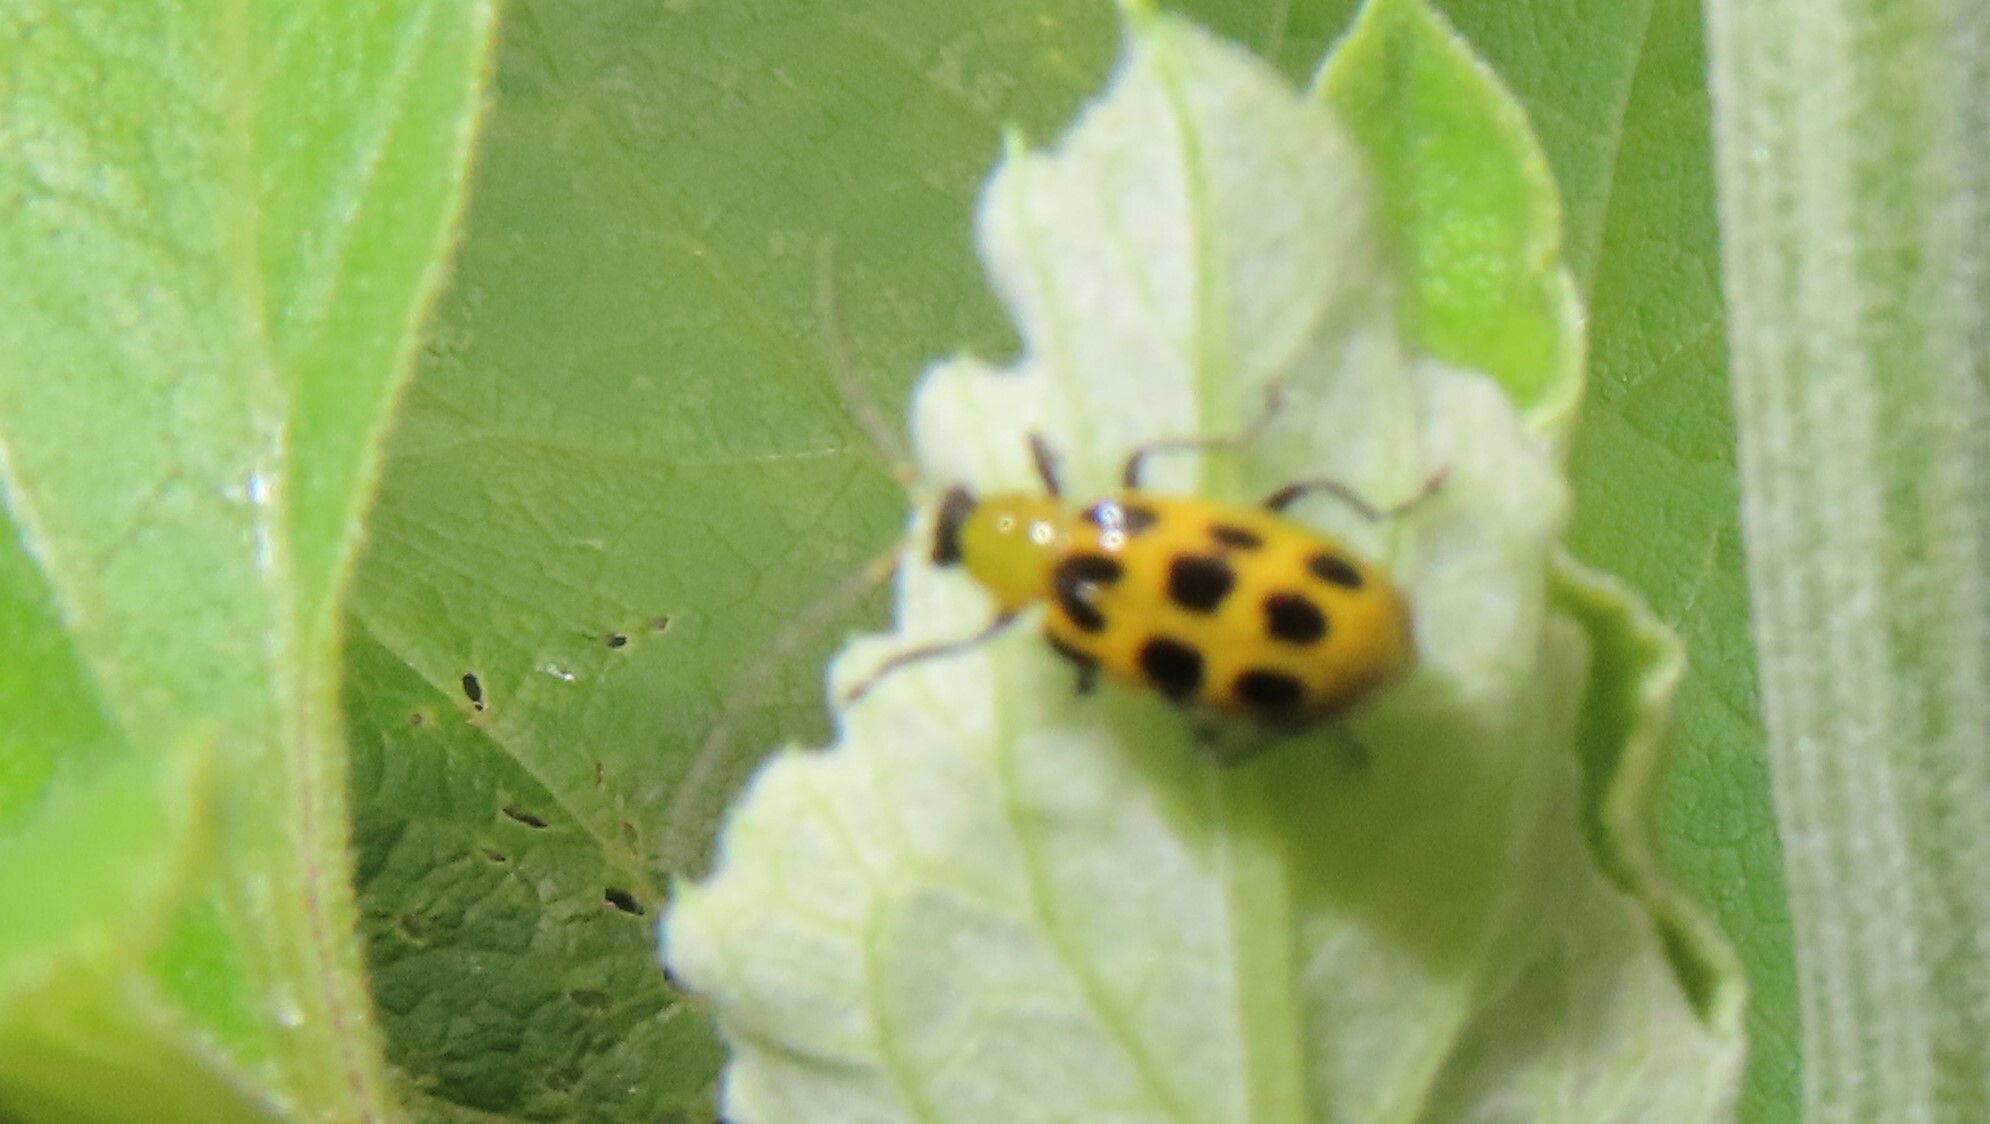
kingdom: Animalia
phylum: Arthropoda
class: Insecta
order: Coleoptera
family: Chrysomelidae
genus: Diabrotica
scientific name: Diabrotica undecimpunctata
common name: Spotted cucumber beetle
